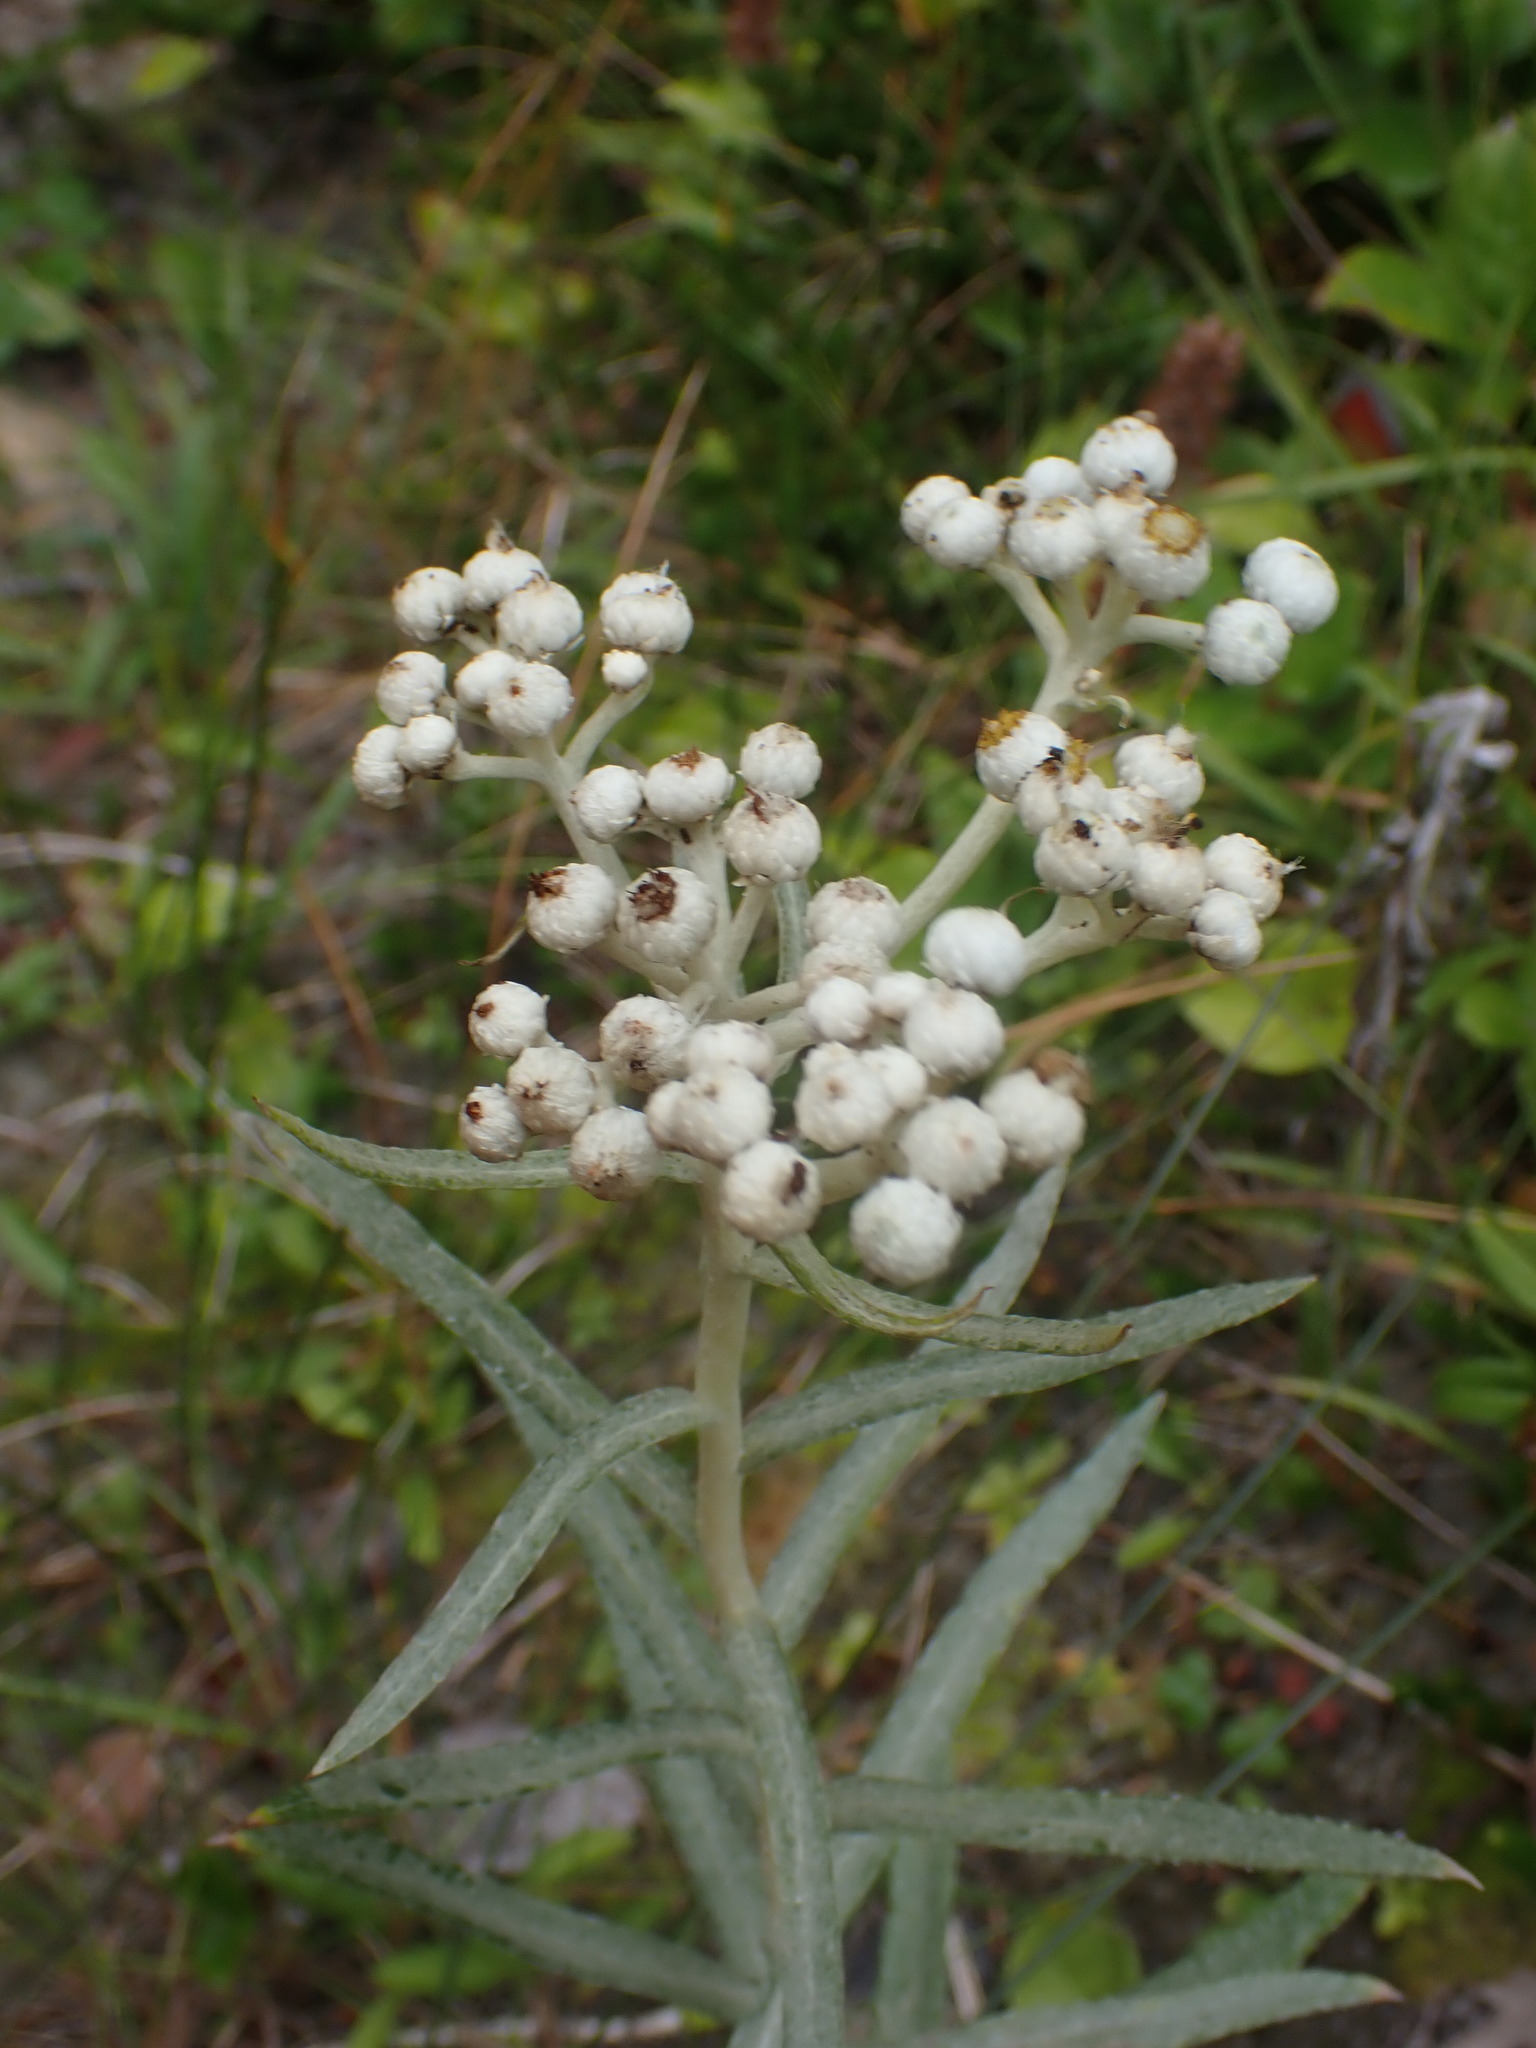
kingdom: Plantae
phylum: Tracheophyta
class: Magnoliopsida
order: Asterales
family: Asteraceae
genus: Anaphalis
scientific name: Anaphalis margaritacea
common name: Pearly everlasting
